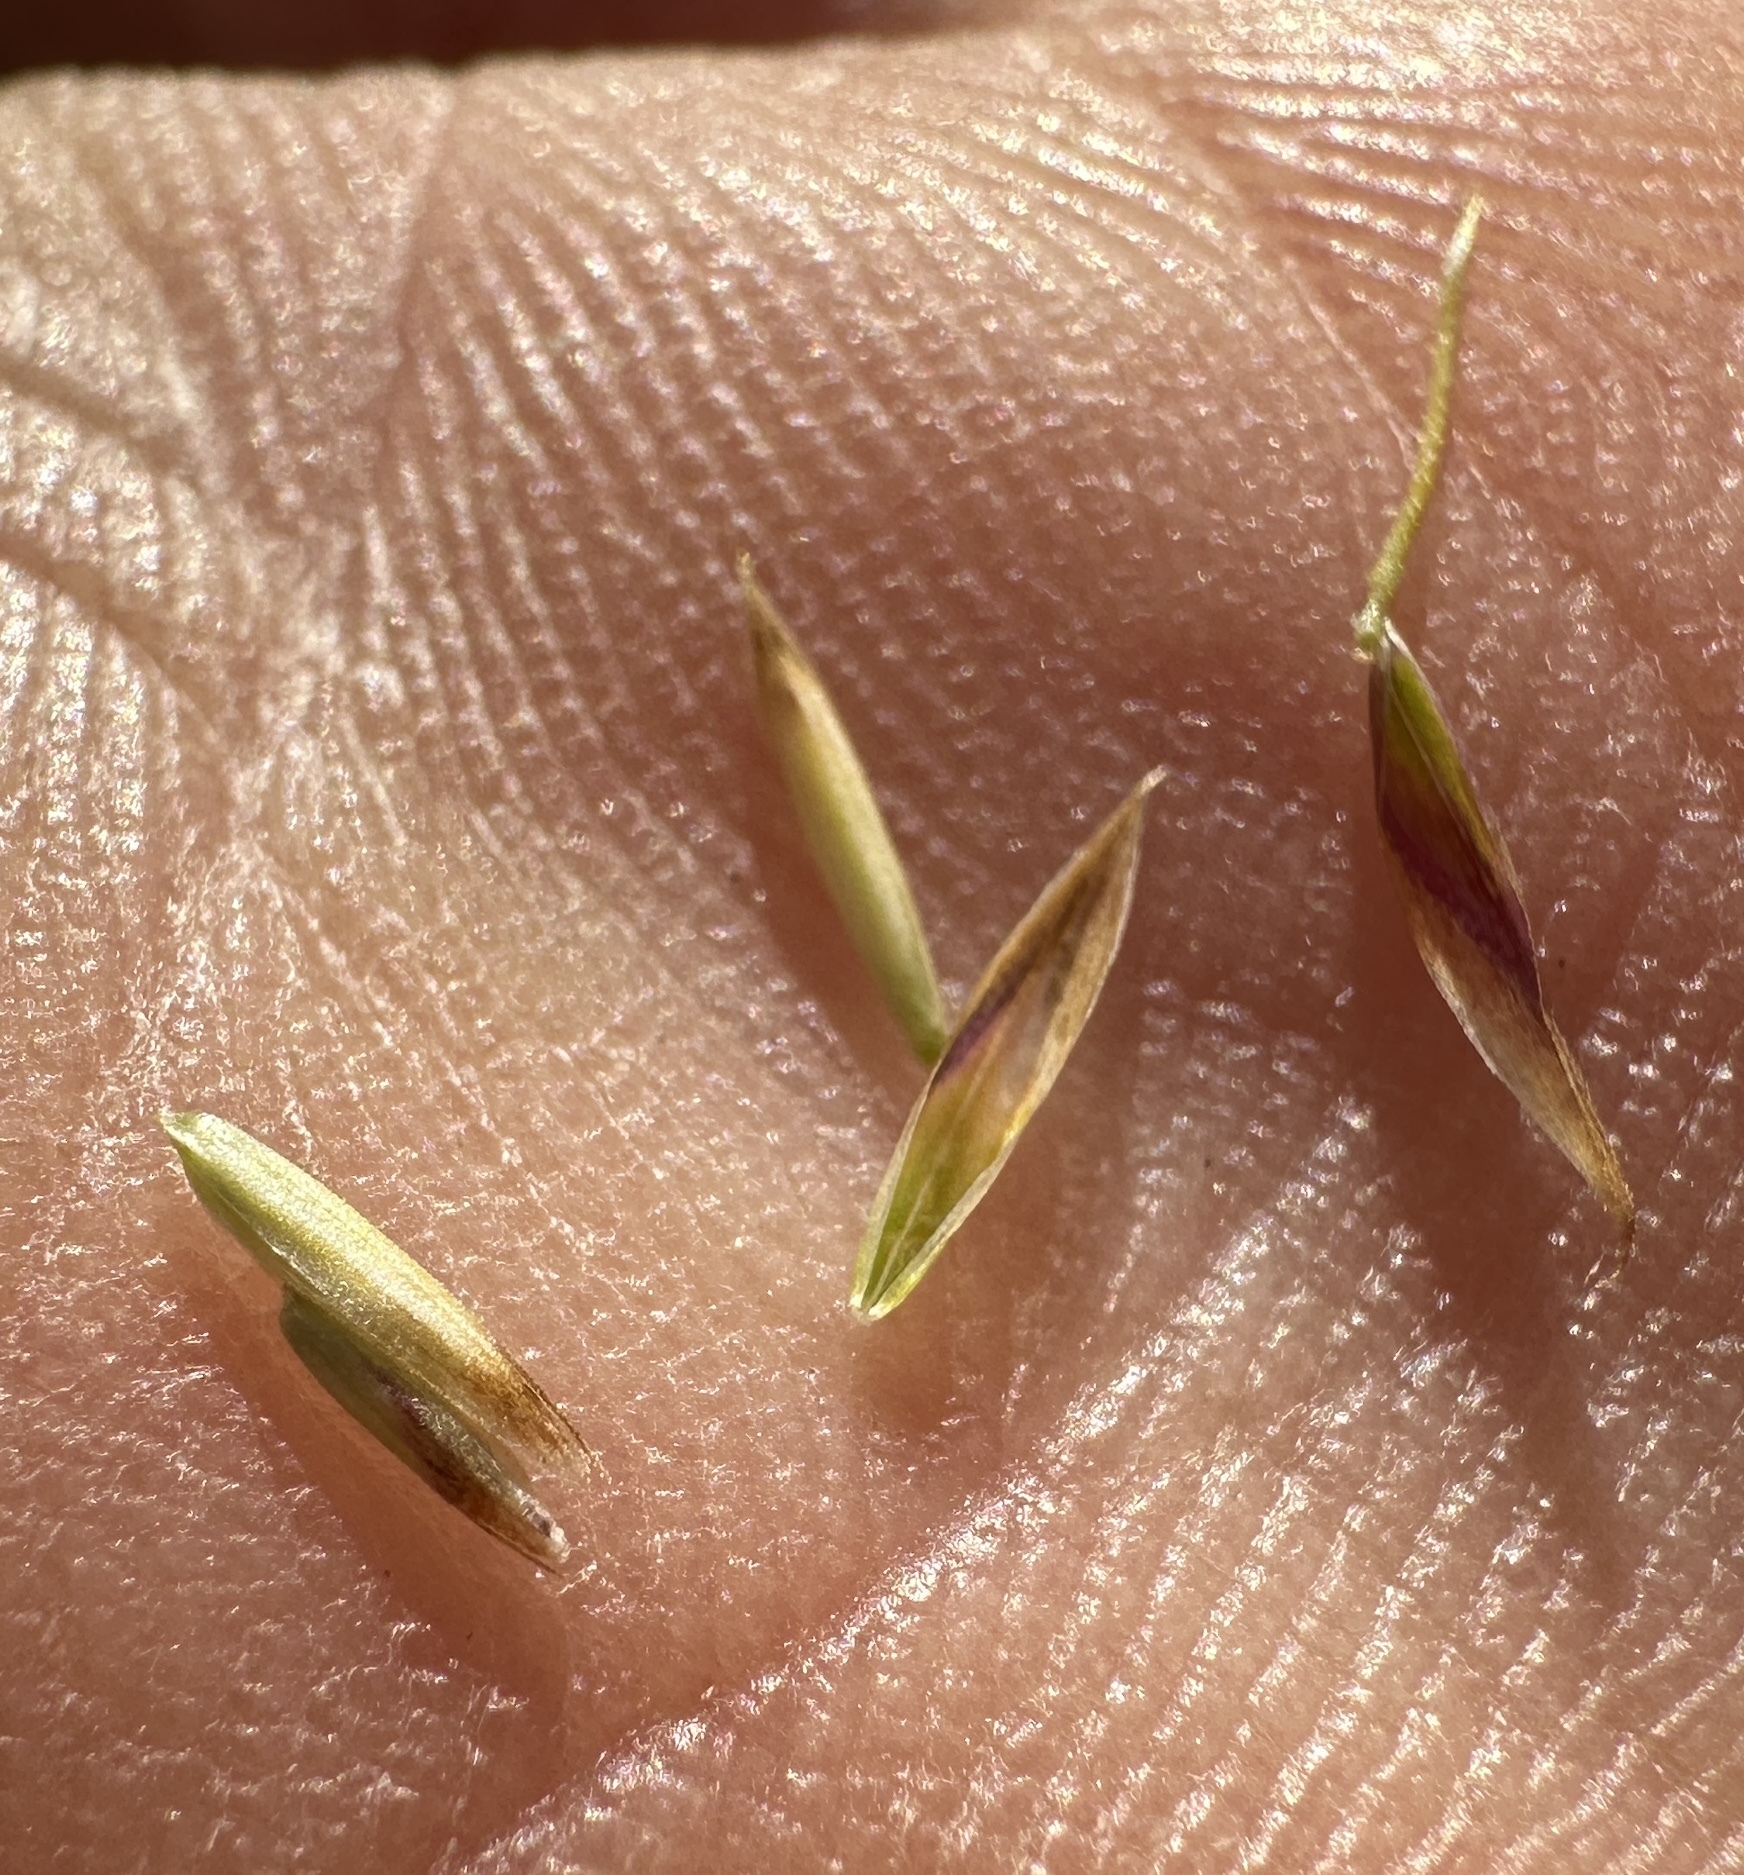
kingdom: Plantae
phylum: Tracheophyta
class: Liliopsida
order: Poales
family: Poaceae
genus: Graphephorum
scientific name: Graphephorum wolfii
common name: Wolf's trisetum
